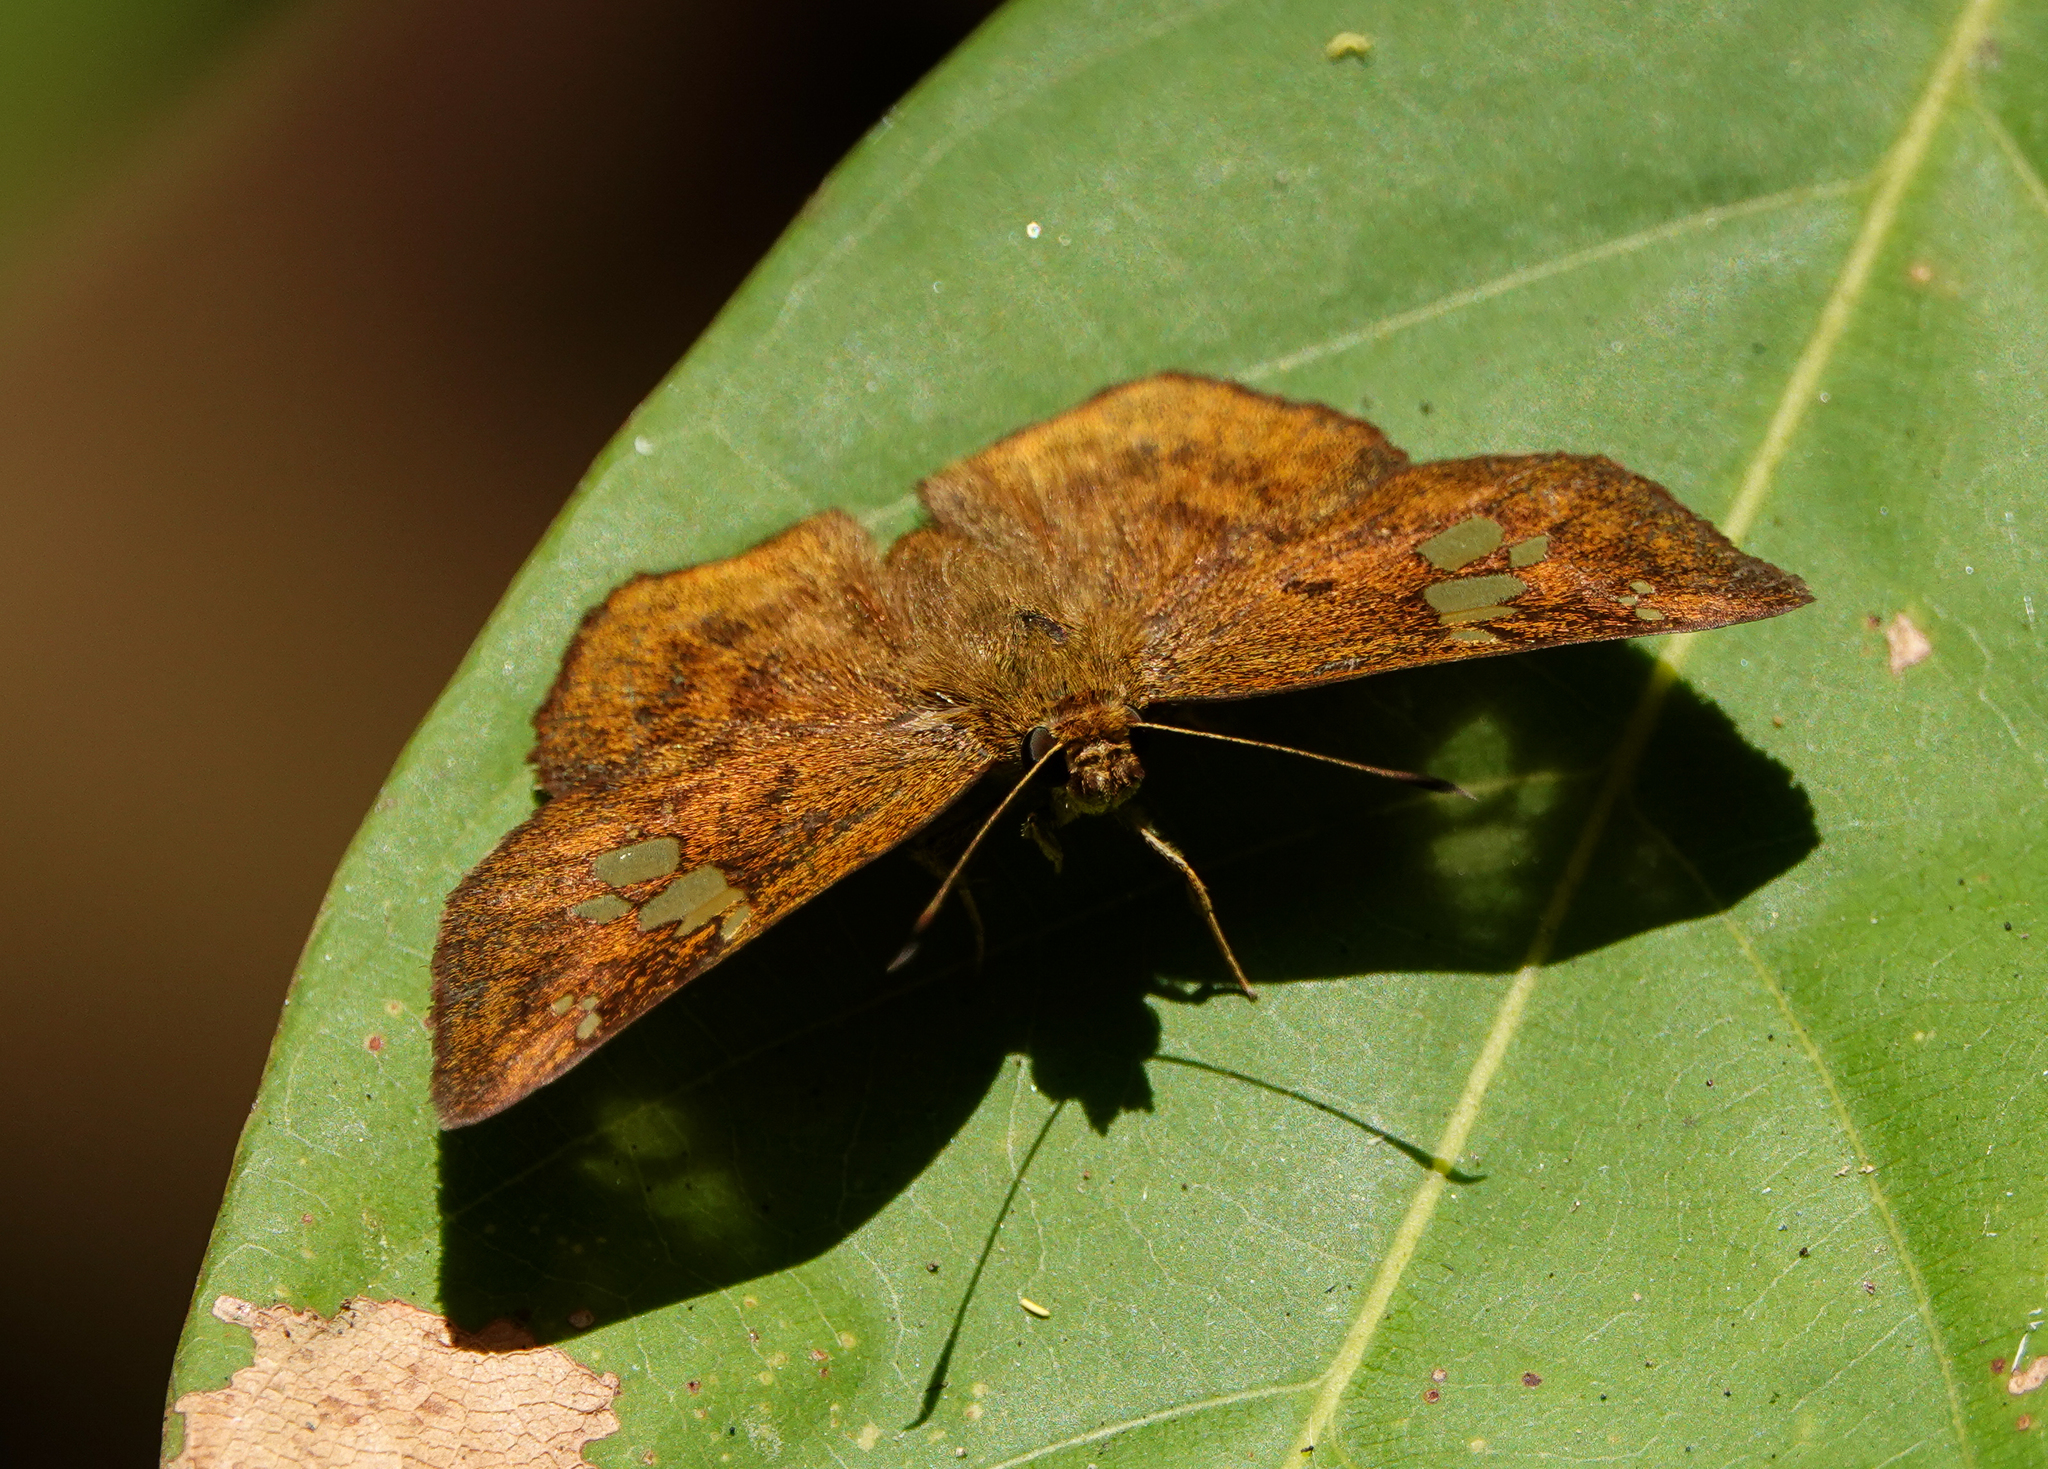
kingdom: Animalia
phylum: Arthropoda
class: Insecta
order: Lepidoptera
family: Hesperiidae
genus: Pseudocoladenia
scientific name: Pseudocoladenia dan
